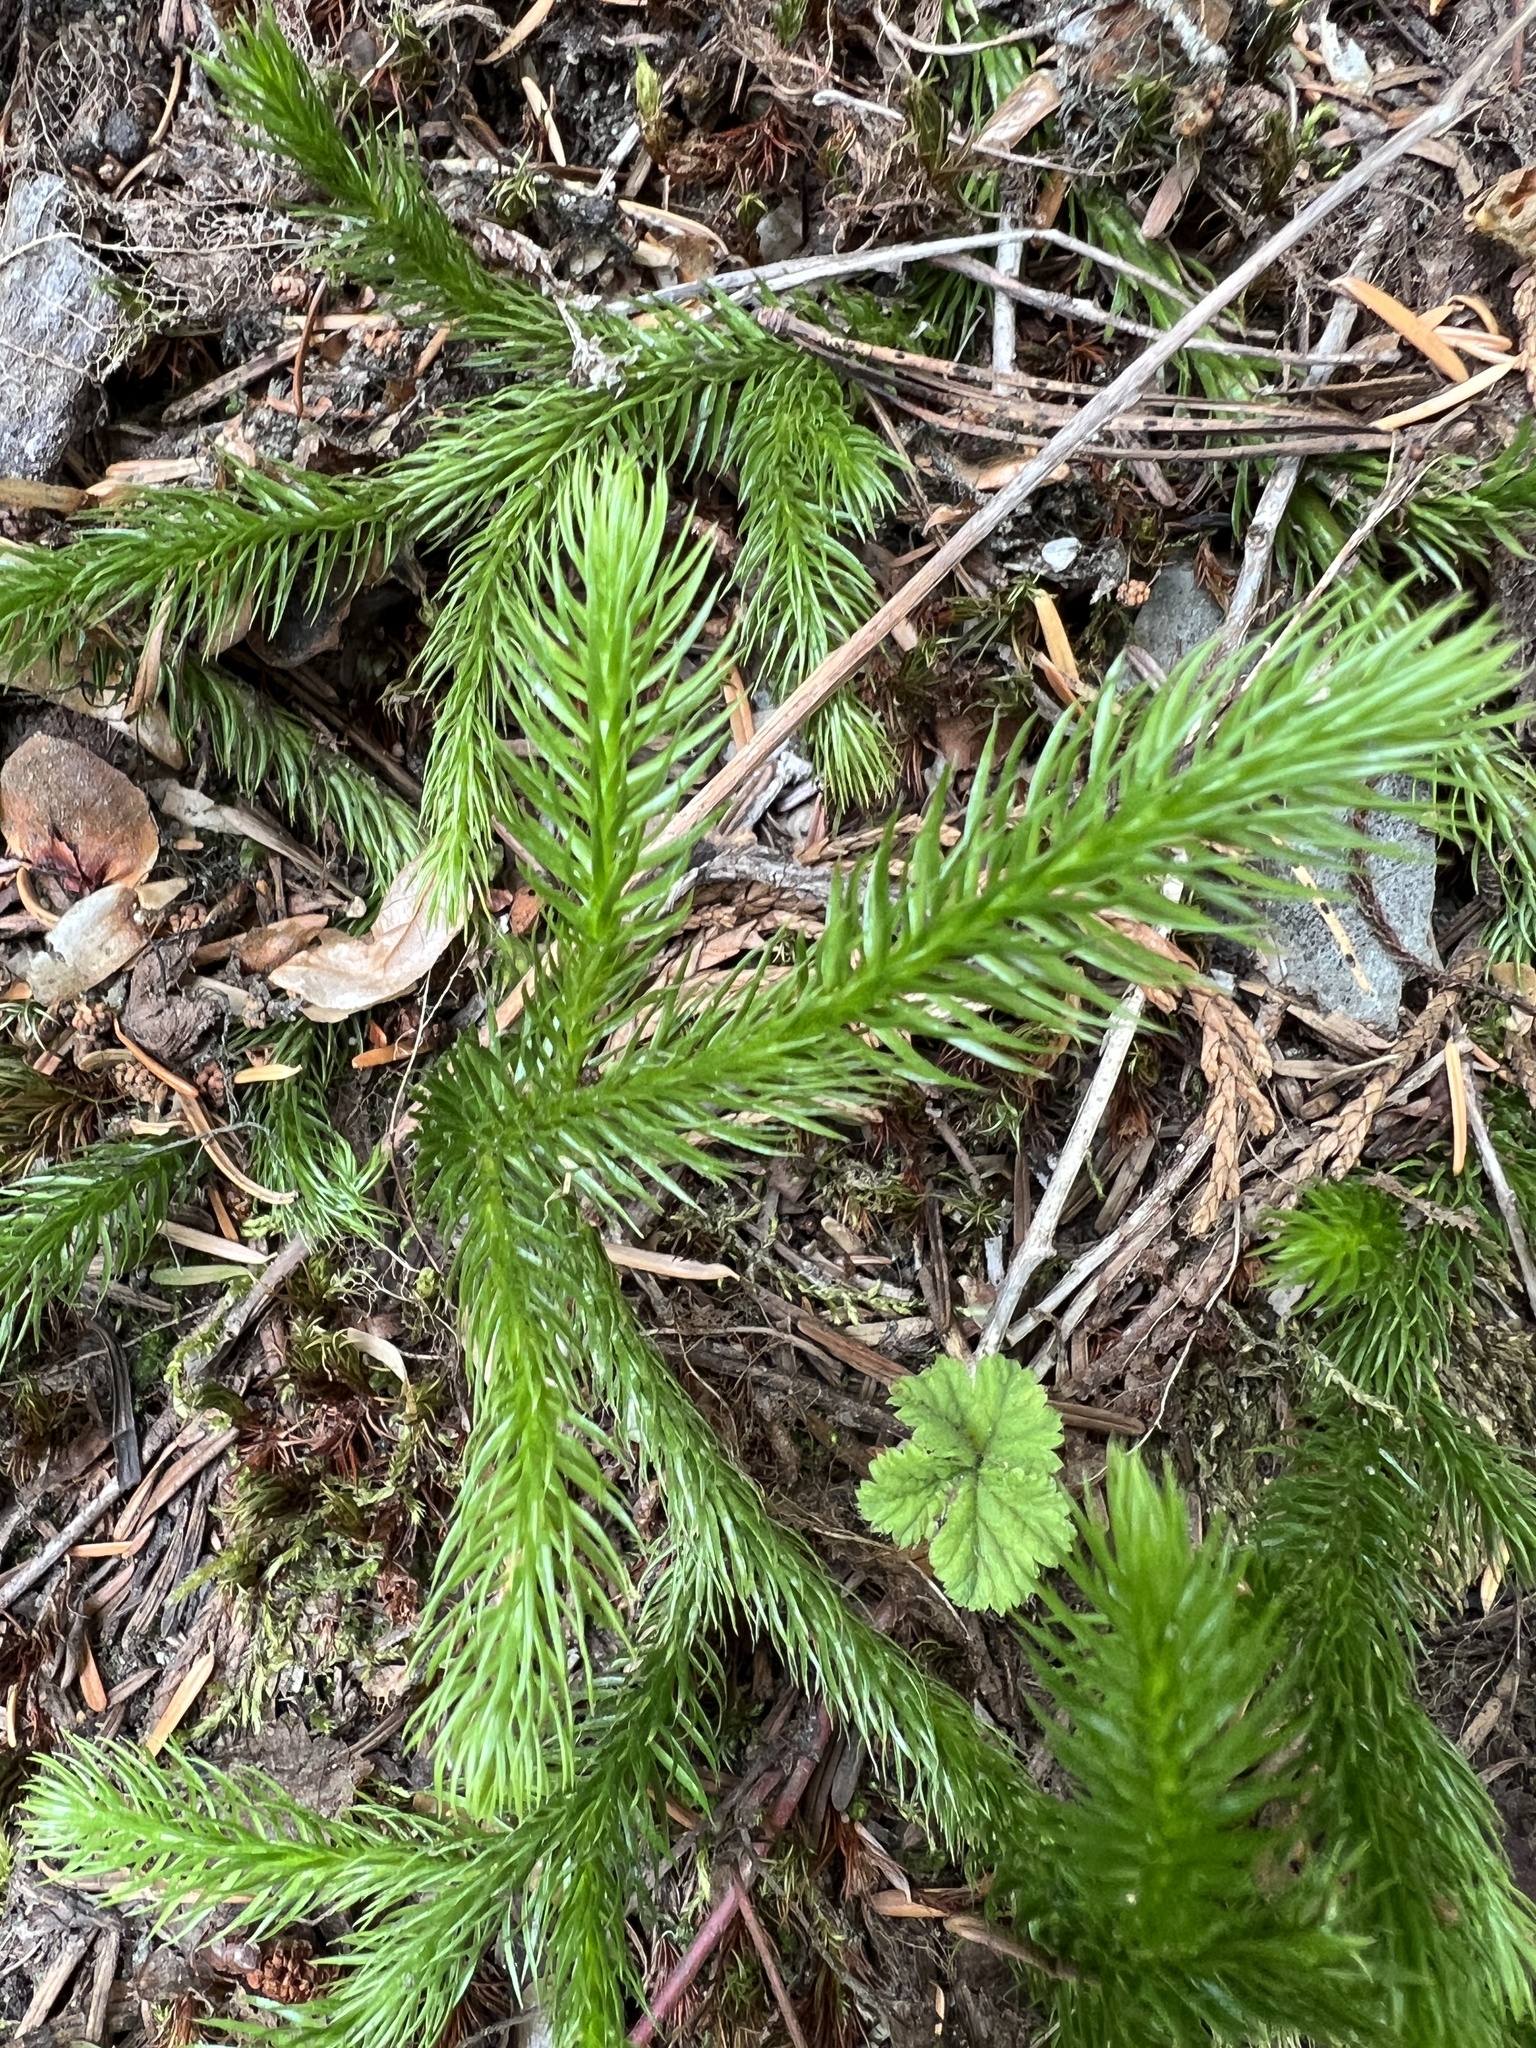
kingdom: Plantae
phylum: Tracheophyta
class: Lycopodiopsida
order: Lycopodiales
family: Lycopodiaceae
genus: Lycopodium
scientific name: Lycopodium clavatum
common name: Stag's-horn clubmoss
